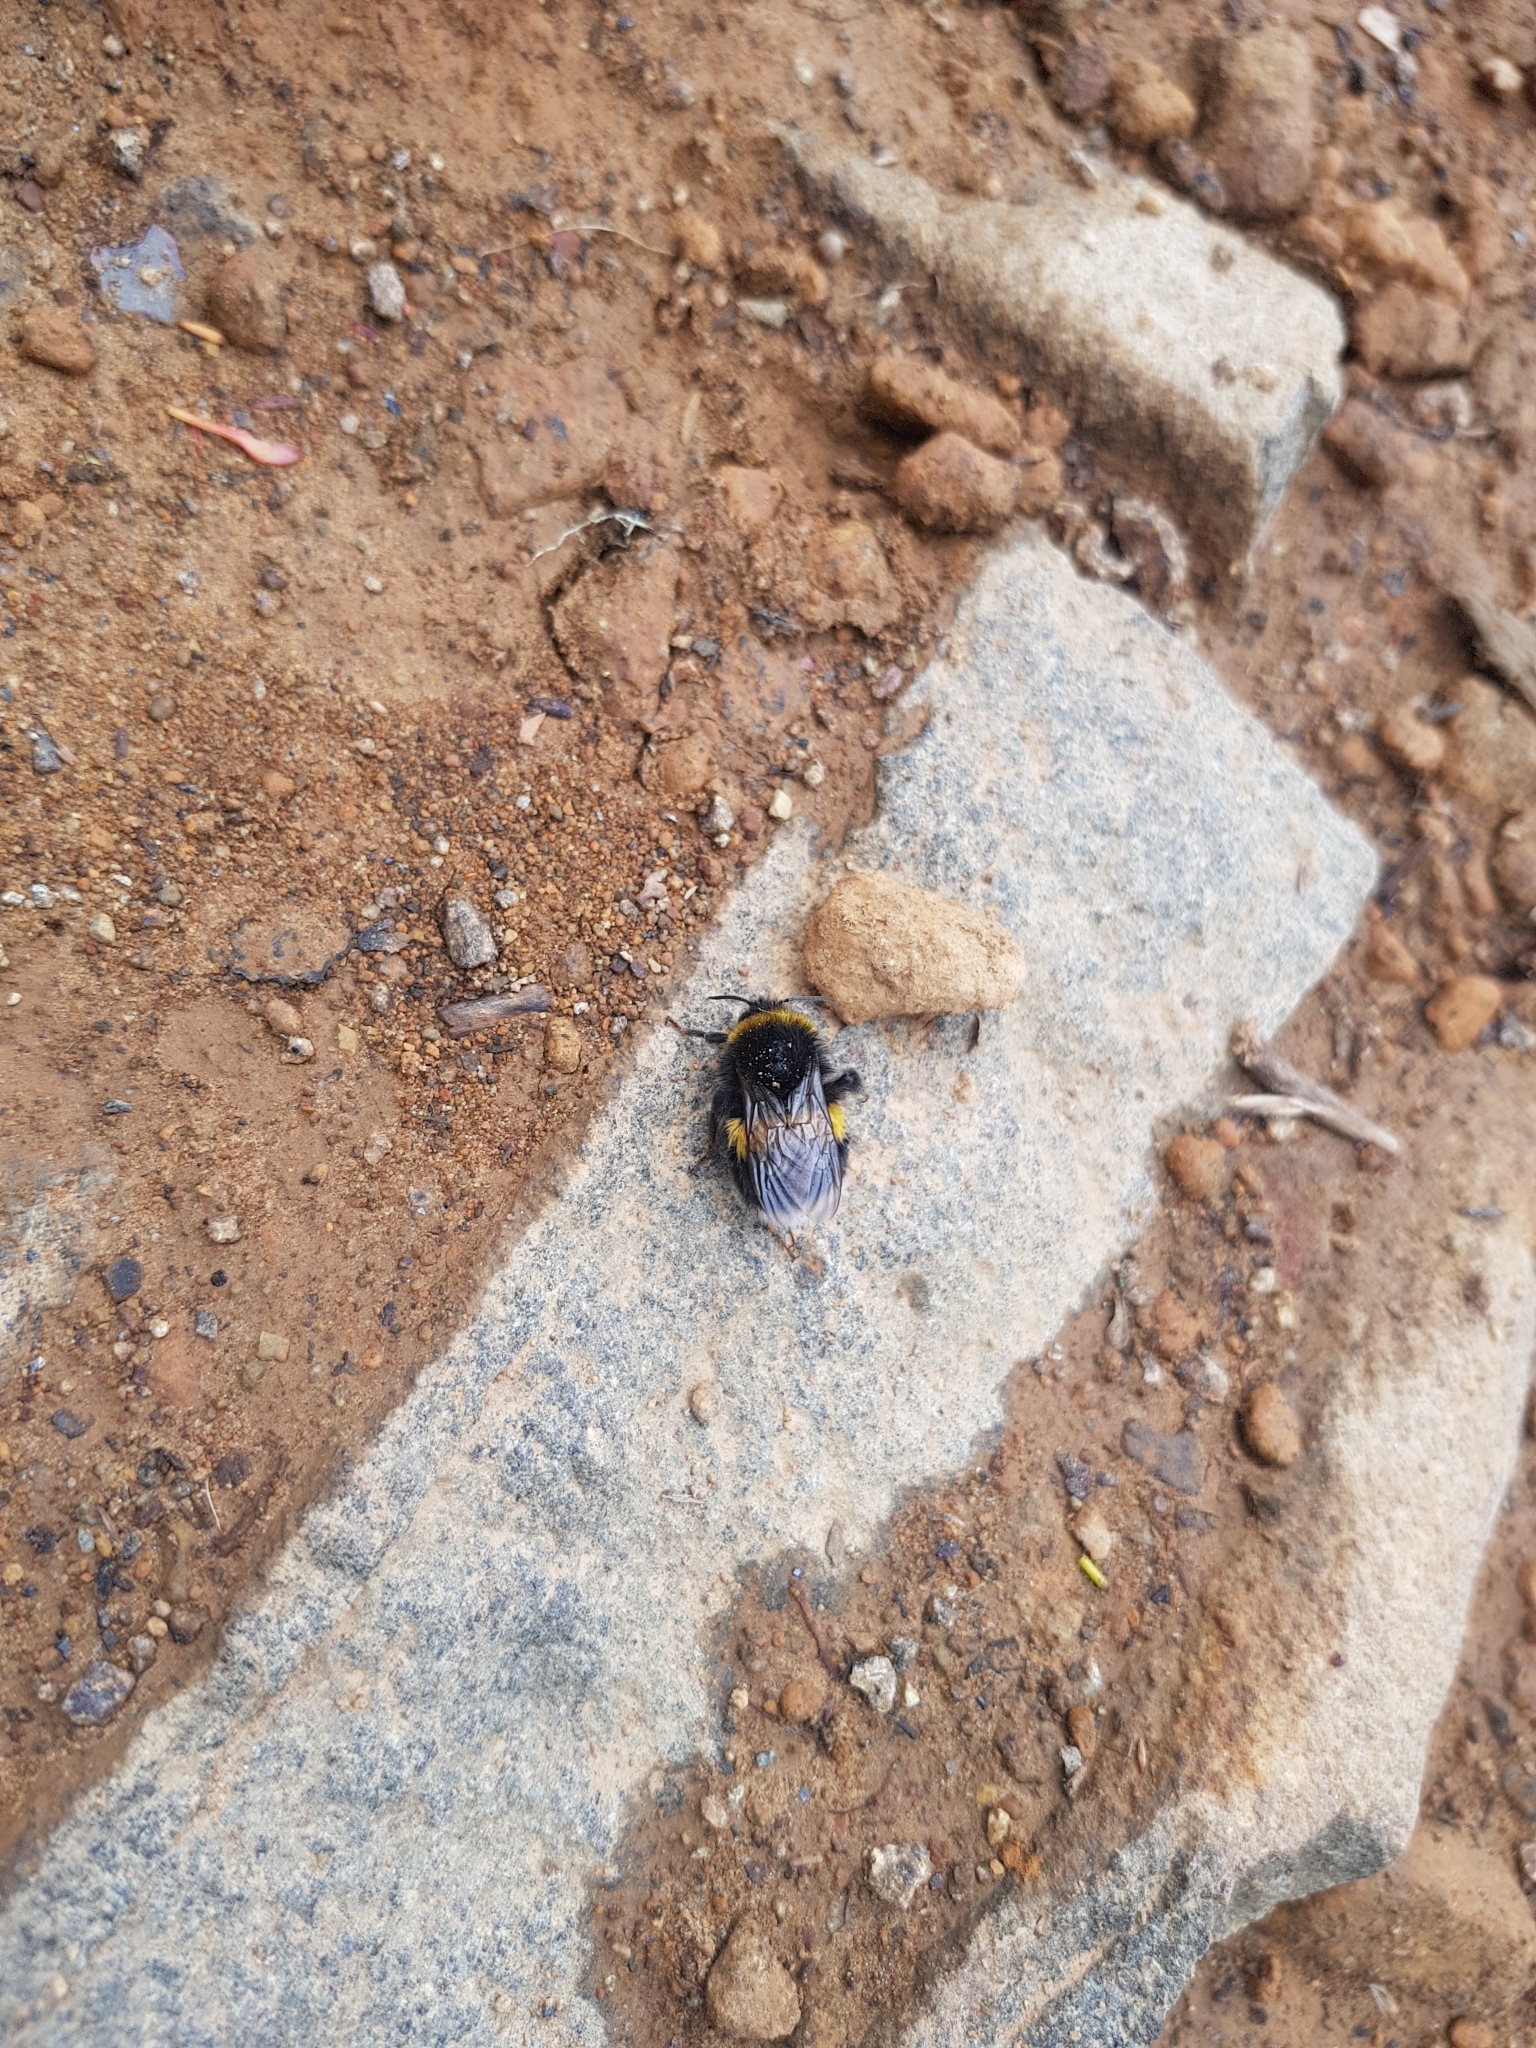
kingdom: Animalia
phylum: Arthropoda
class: Insecta
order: Hymenoptera
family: Apidae
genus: Bombus
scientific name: Bombus terrestris
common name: Buff-tailed bumblebee
